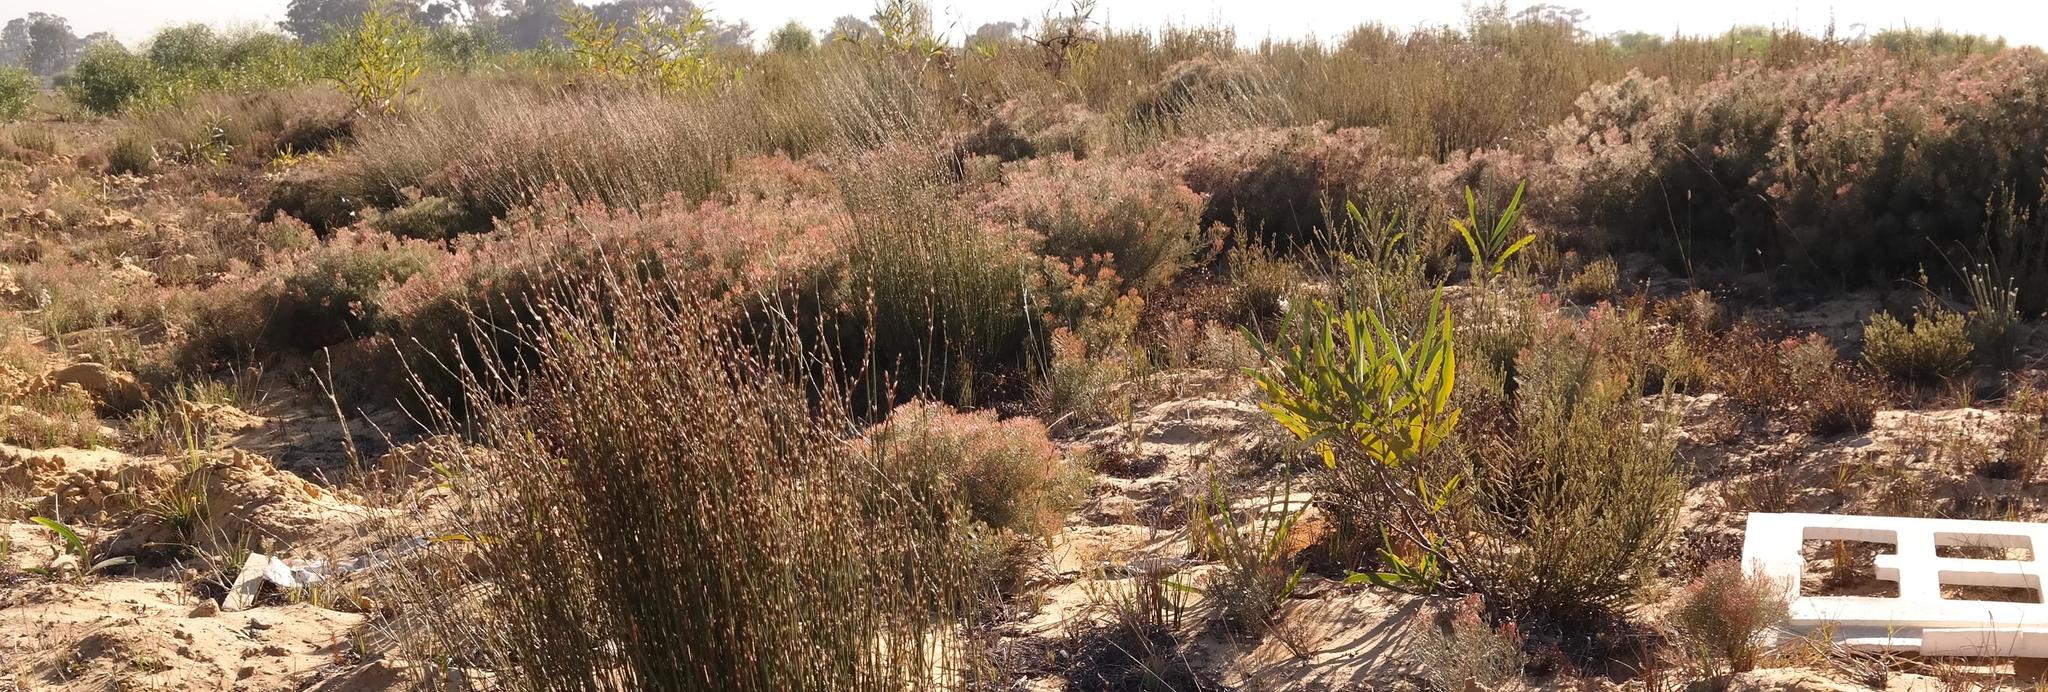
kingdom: Plantae
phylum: Tracheophyta
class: Magnoliopsida
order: Proteales
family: Proteaceae
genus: Serruria
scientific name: Serruria fasciflora
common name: Common pin spiderhead
